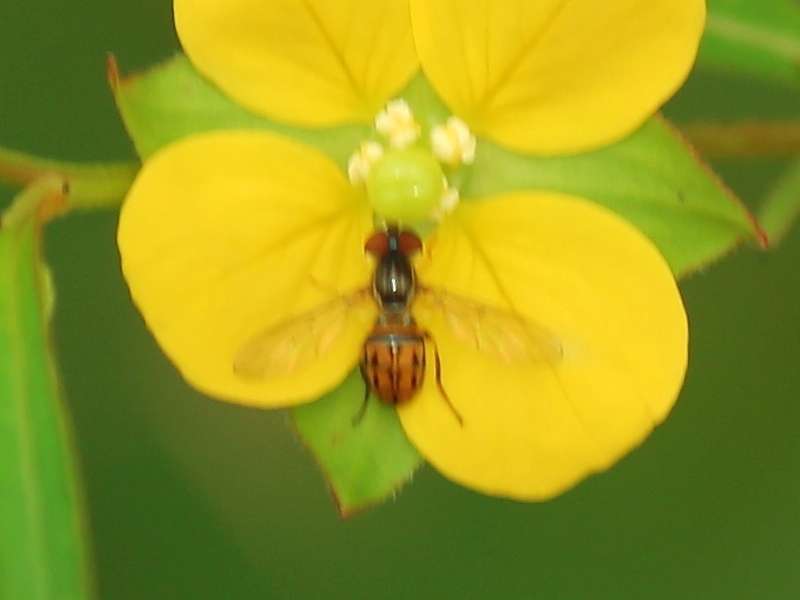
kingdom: Animalia
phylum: Arthropoda
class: Insecta
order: Diptera
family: Syrphidae
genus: Toxomerus
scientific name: Toxomerus boscii
